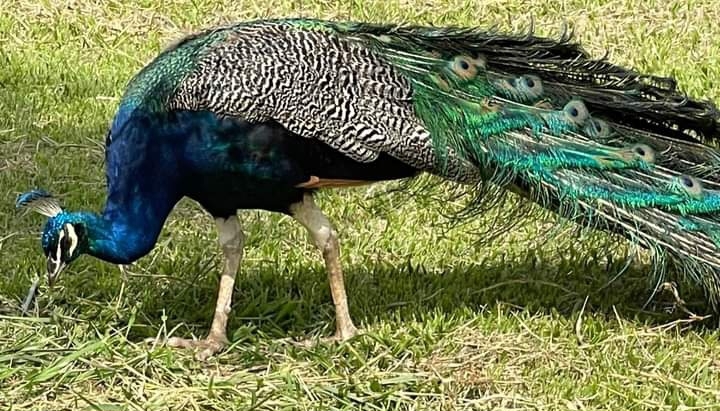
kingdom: Animalia
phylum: Chordata
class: Aves
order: Galliformes
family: Phasianidae
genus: Pavo
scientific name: Pavo cristatus
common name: Indian peafowl
